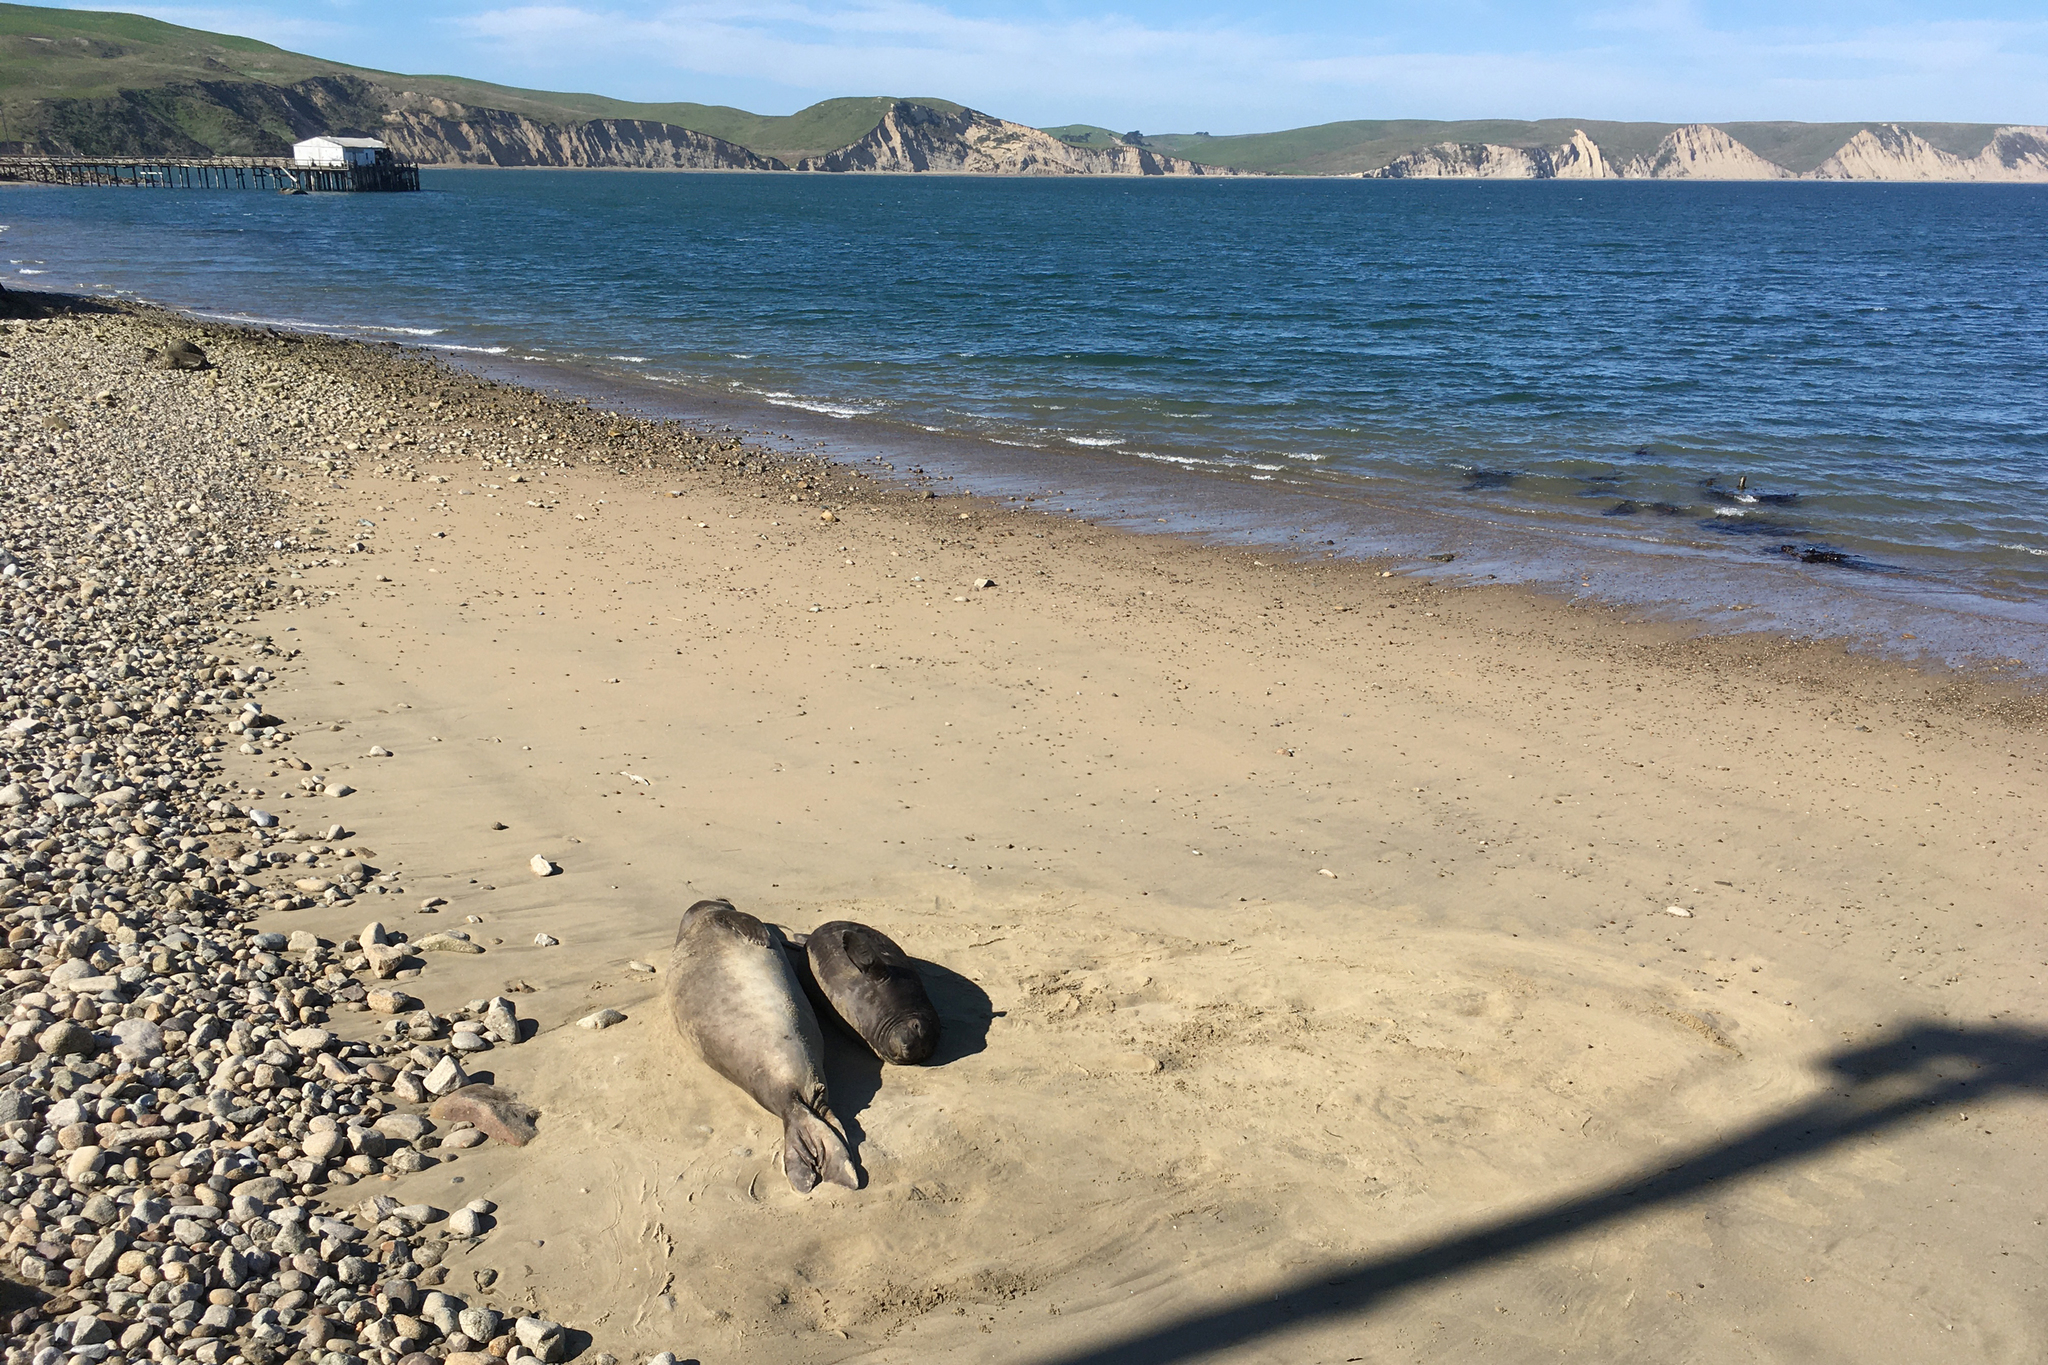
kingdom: Animalia
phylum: Chordata
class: Mammalia
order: Carnivora
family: Phocidae
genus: Mirounga
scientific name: Mirounga angustirostris
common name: Northern elephant seal
